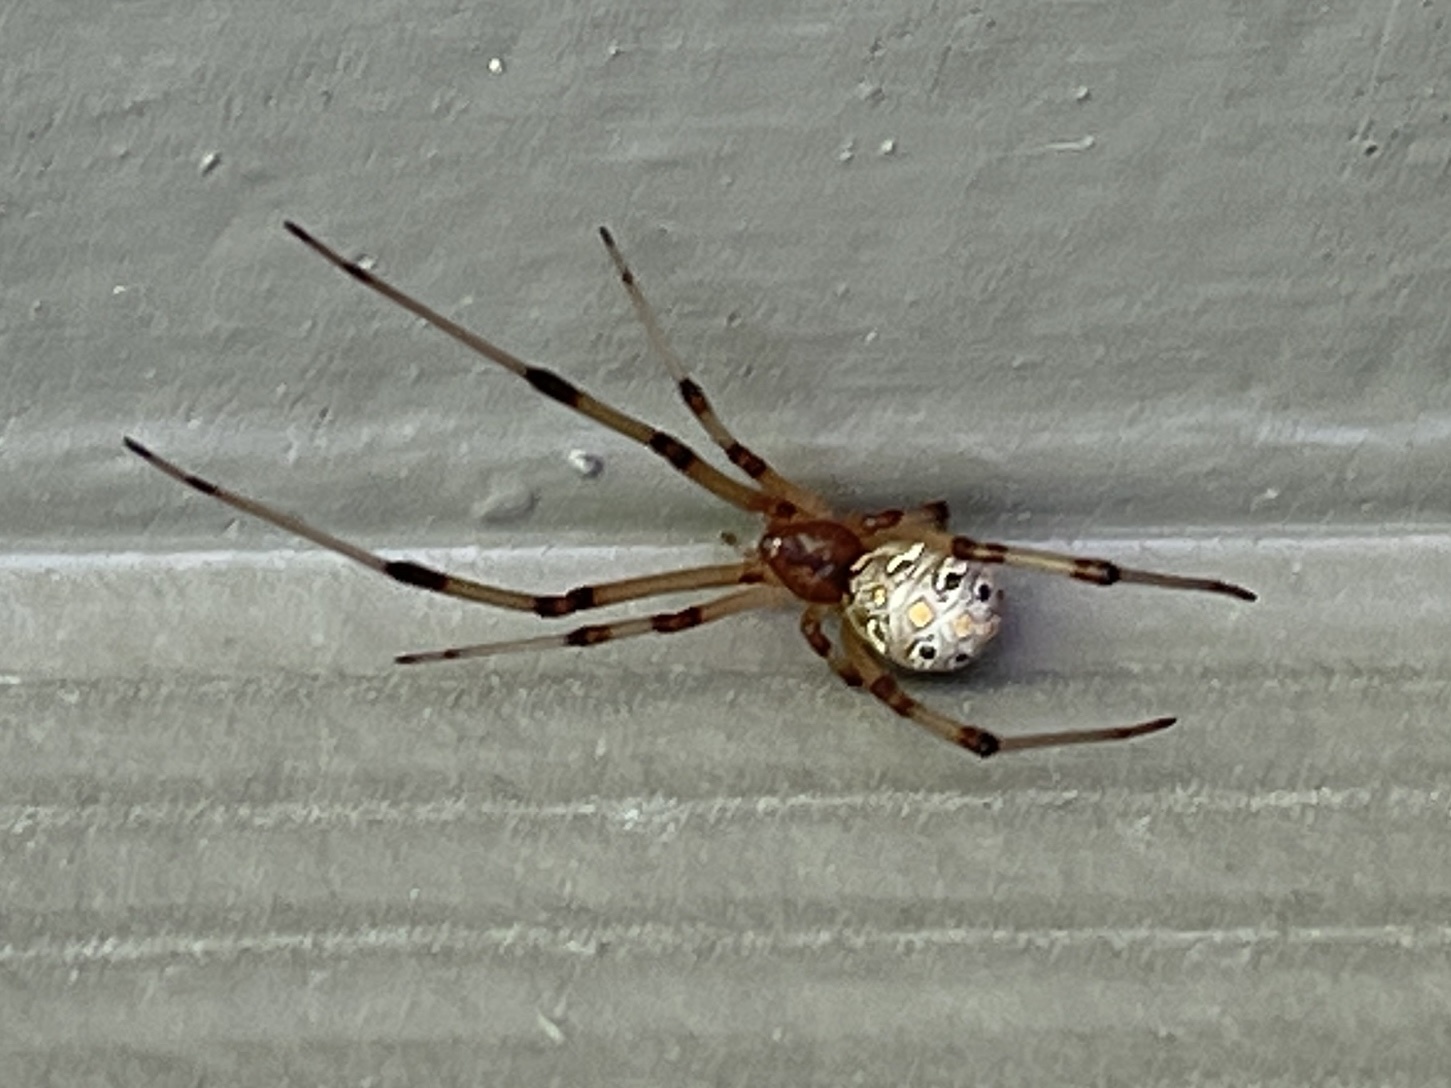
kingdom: Animalia
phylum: Arthropoda
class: Arachnida
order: Araneae
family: Theridiidae
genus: Latrodectus
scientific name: Latrodectus geometricus
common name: Brown widow spider
